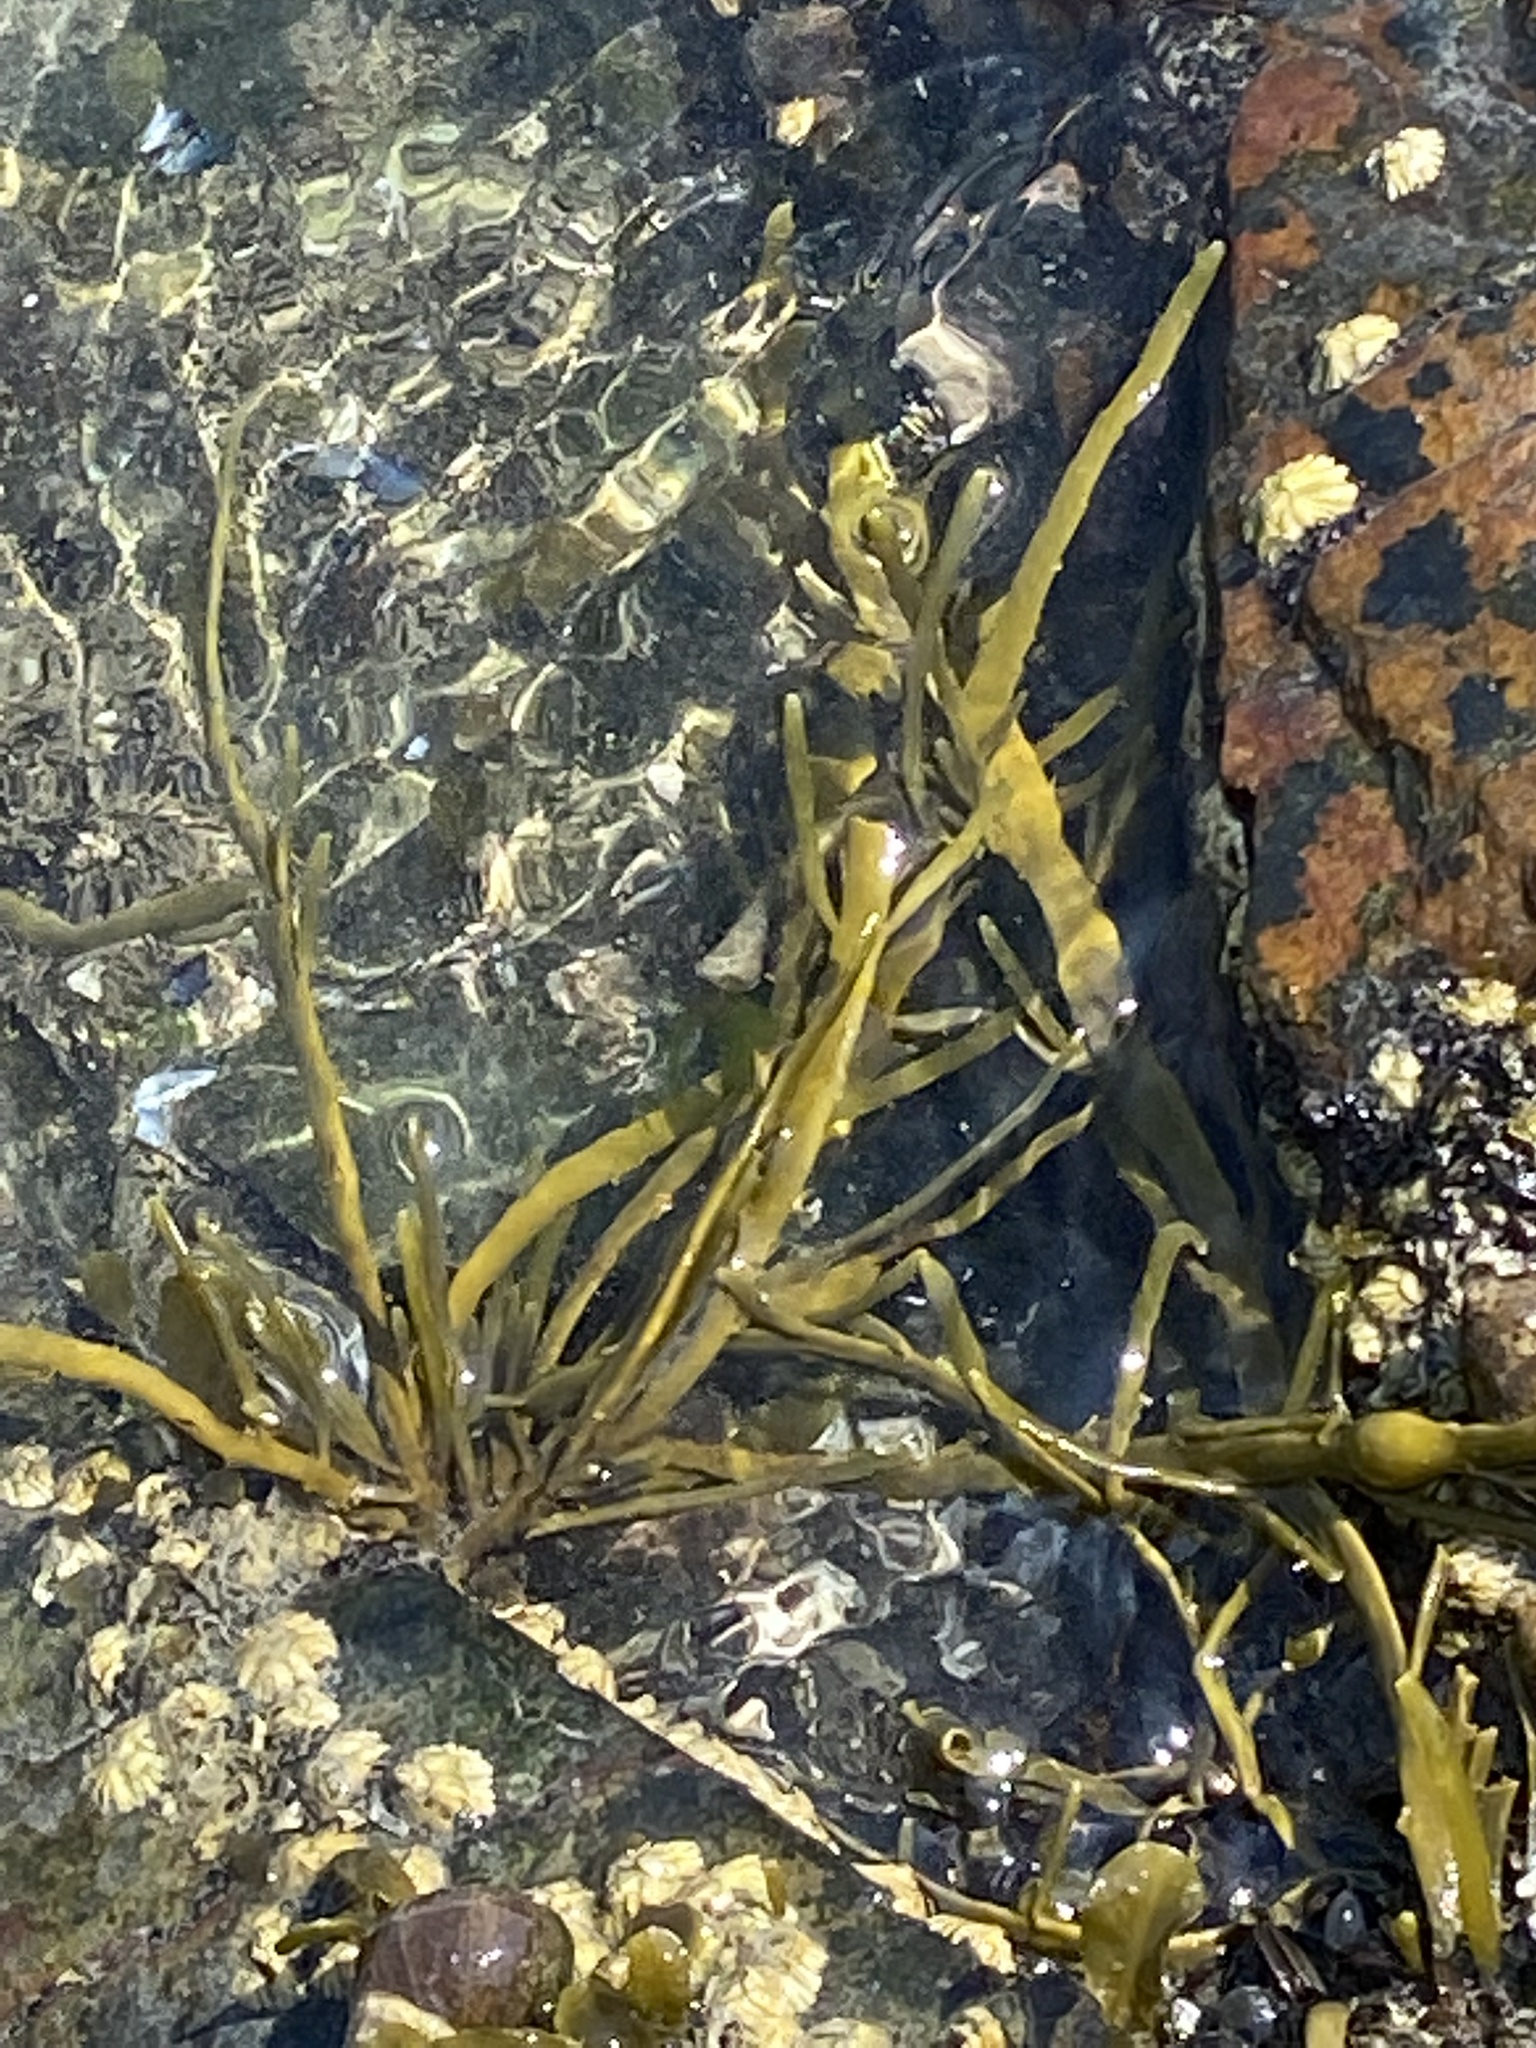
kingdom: Chromista
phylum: Ochrophyta
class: Phaeophyceae
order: Fucales
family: Fucaceae
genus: Ascophyllum
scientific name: Ascophyllum nodosum
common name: Knotted wrack
